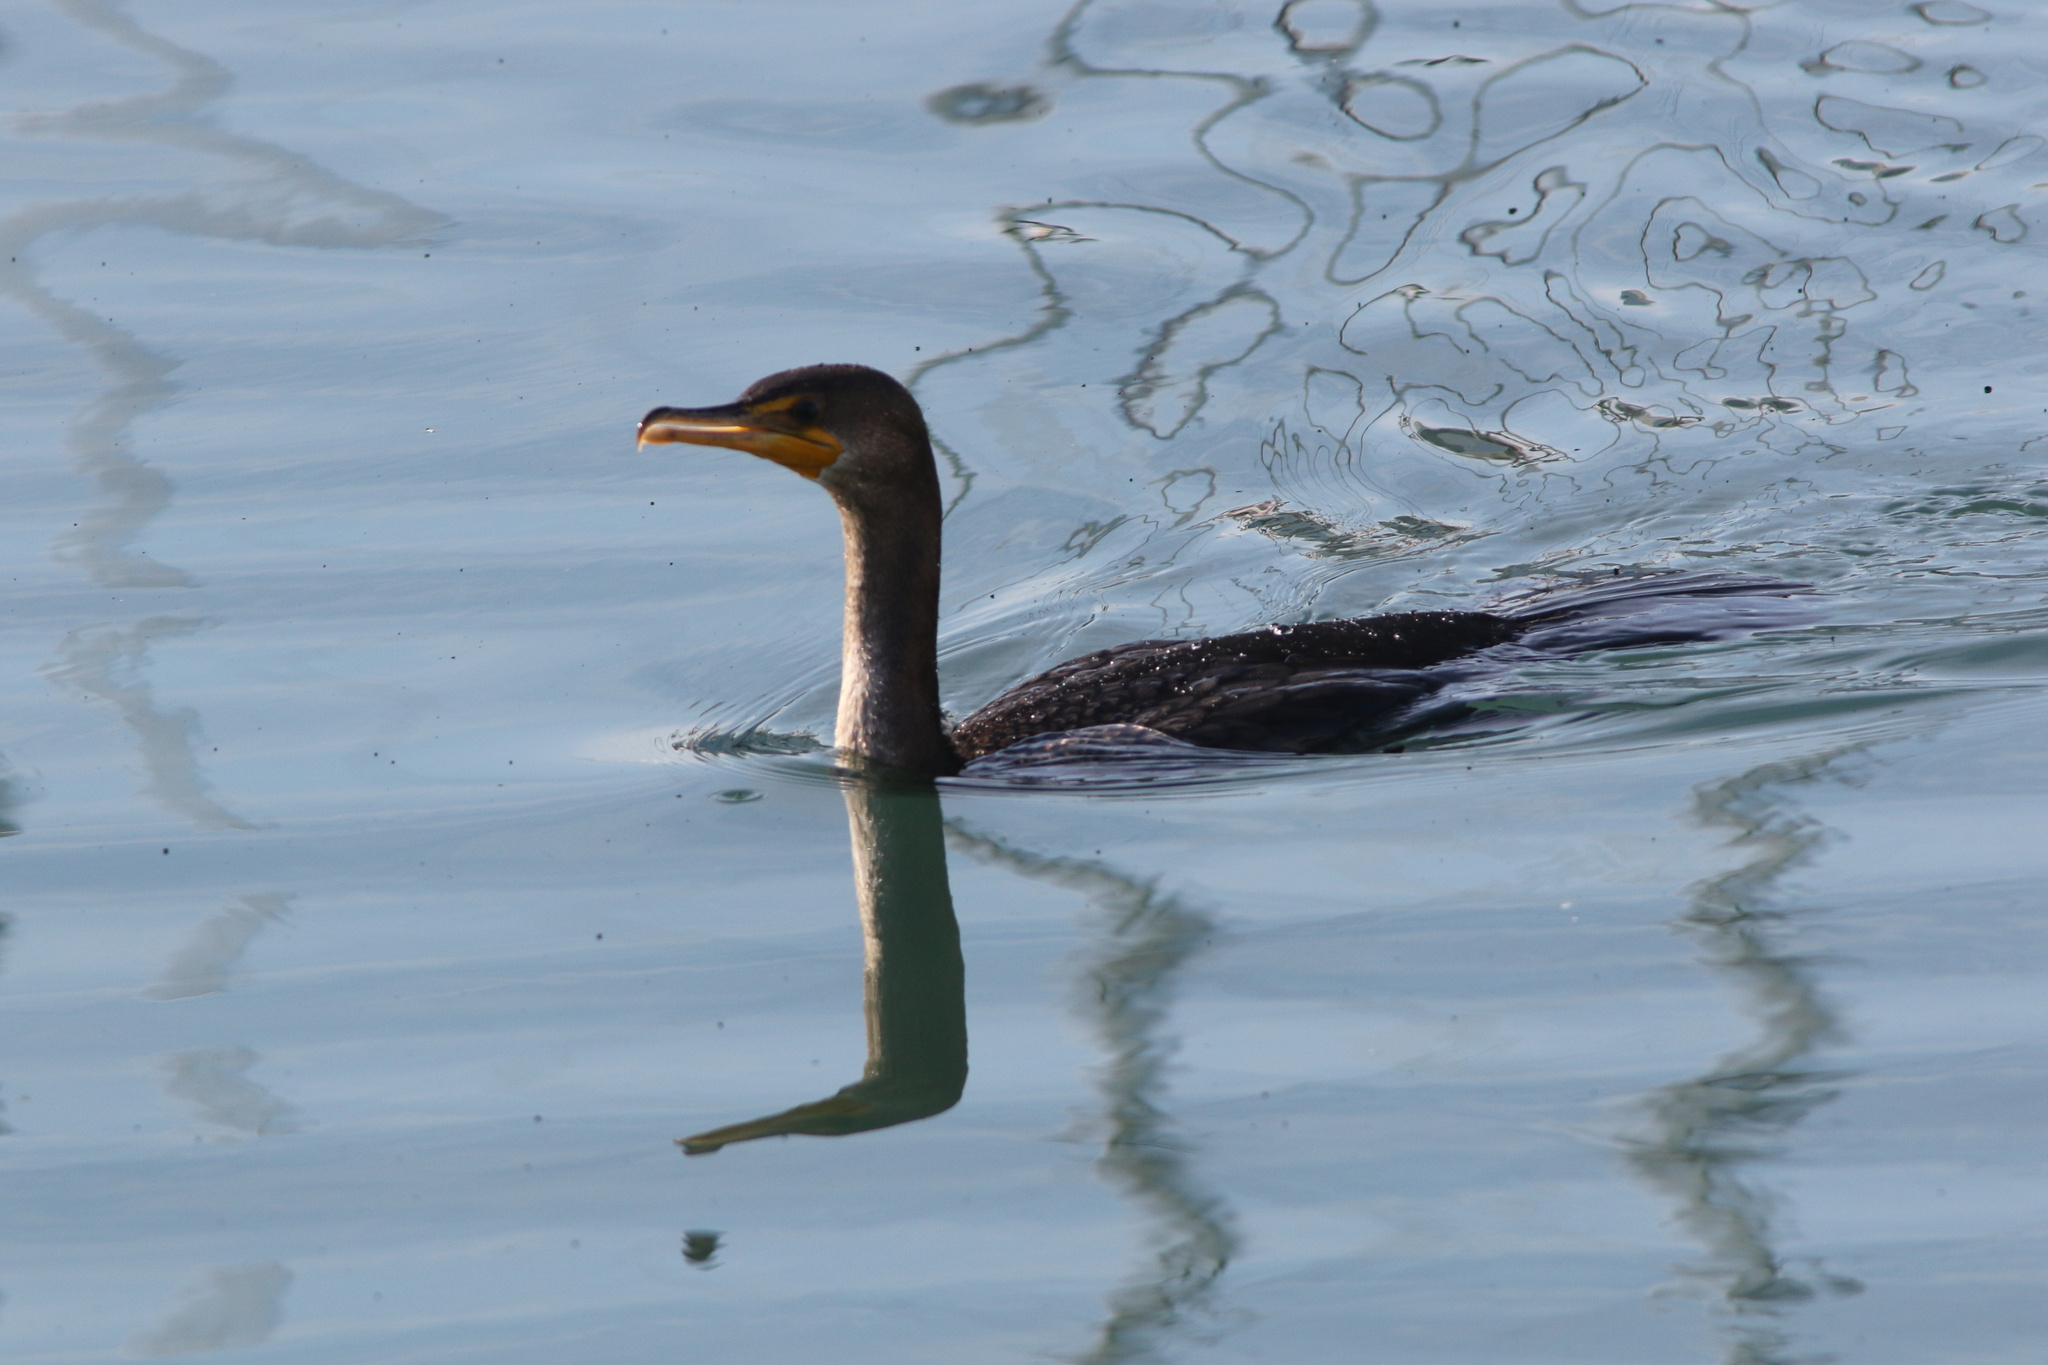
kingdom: Animalia
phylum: Chordata
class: Aves
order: Suliformes
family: Phalacrocoracidae
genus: Phalacrocorax
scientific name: Phalacrocorax auritus
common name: Double-crested cormorant
